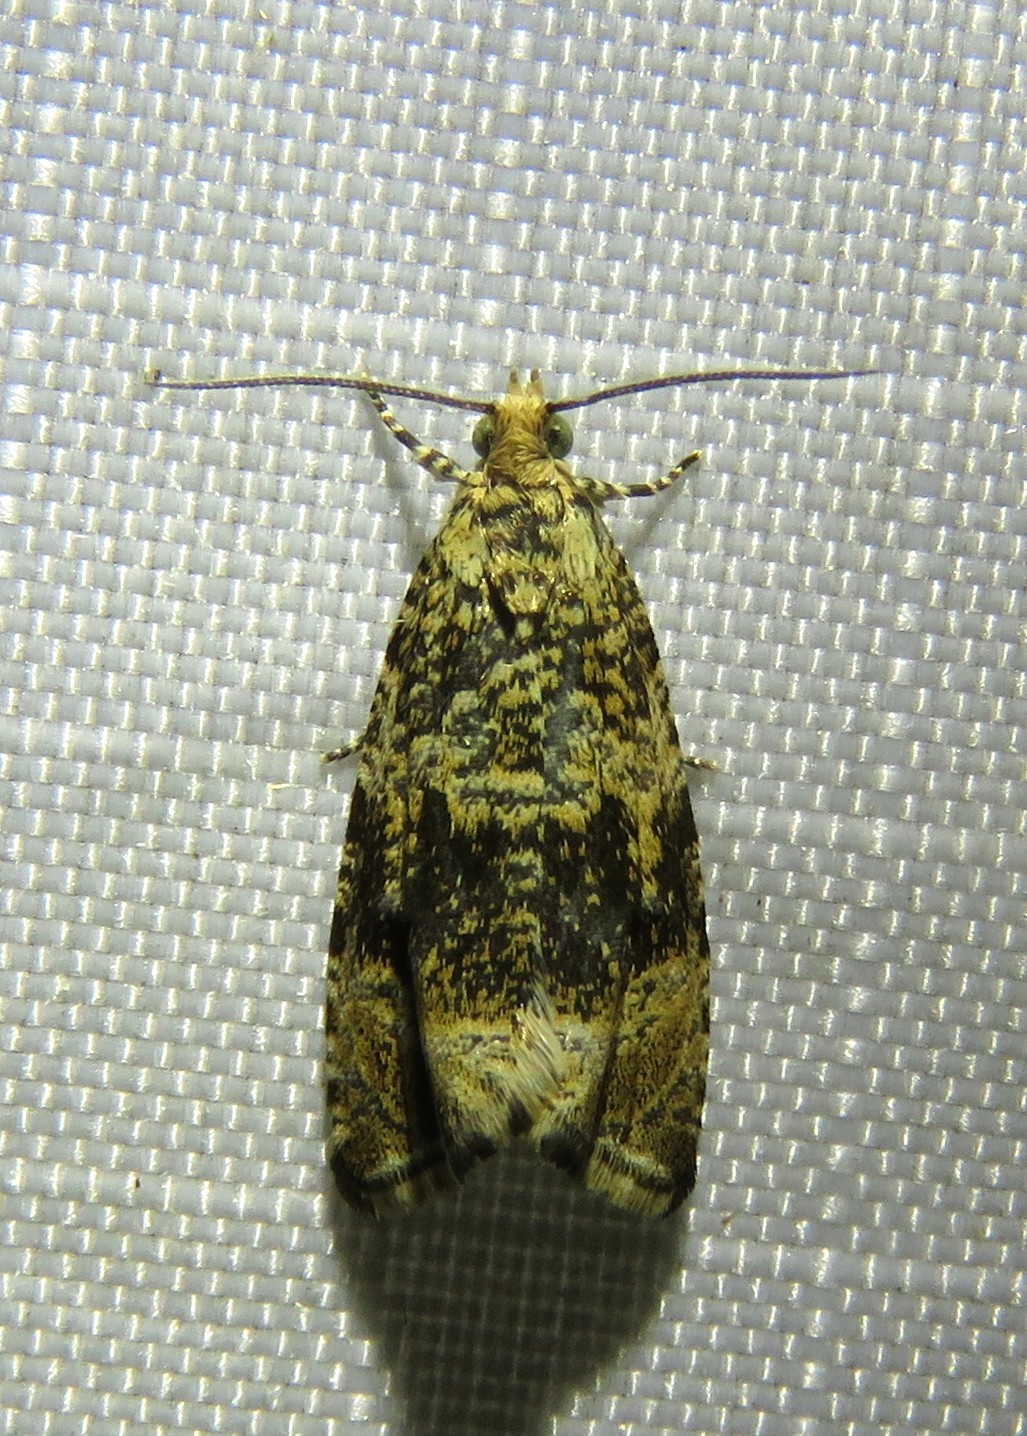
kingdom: Animalia
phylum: Arthropoda
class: Insecta
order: Lepidoptera
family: Tortricidae
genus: Syricoris
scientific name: Syricoris lacunana
